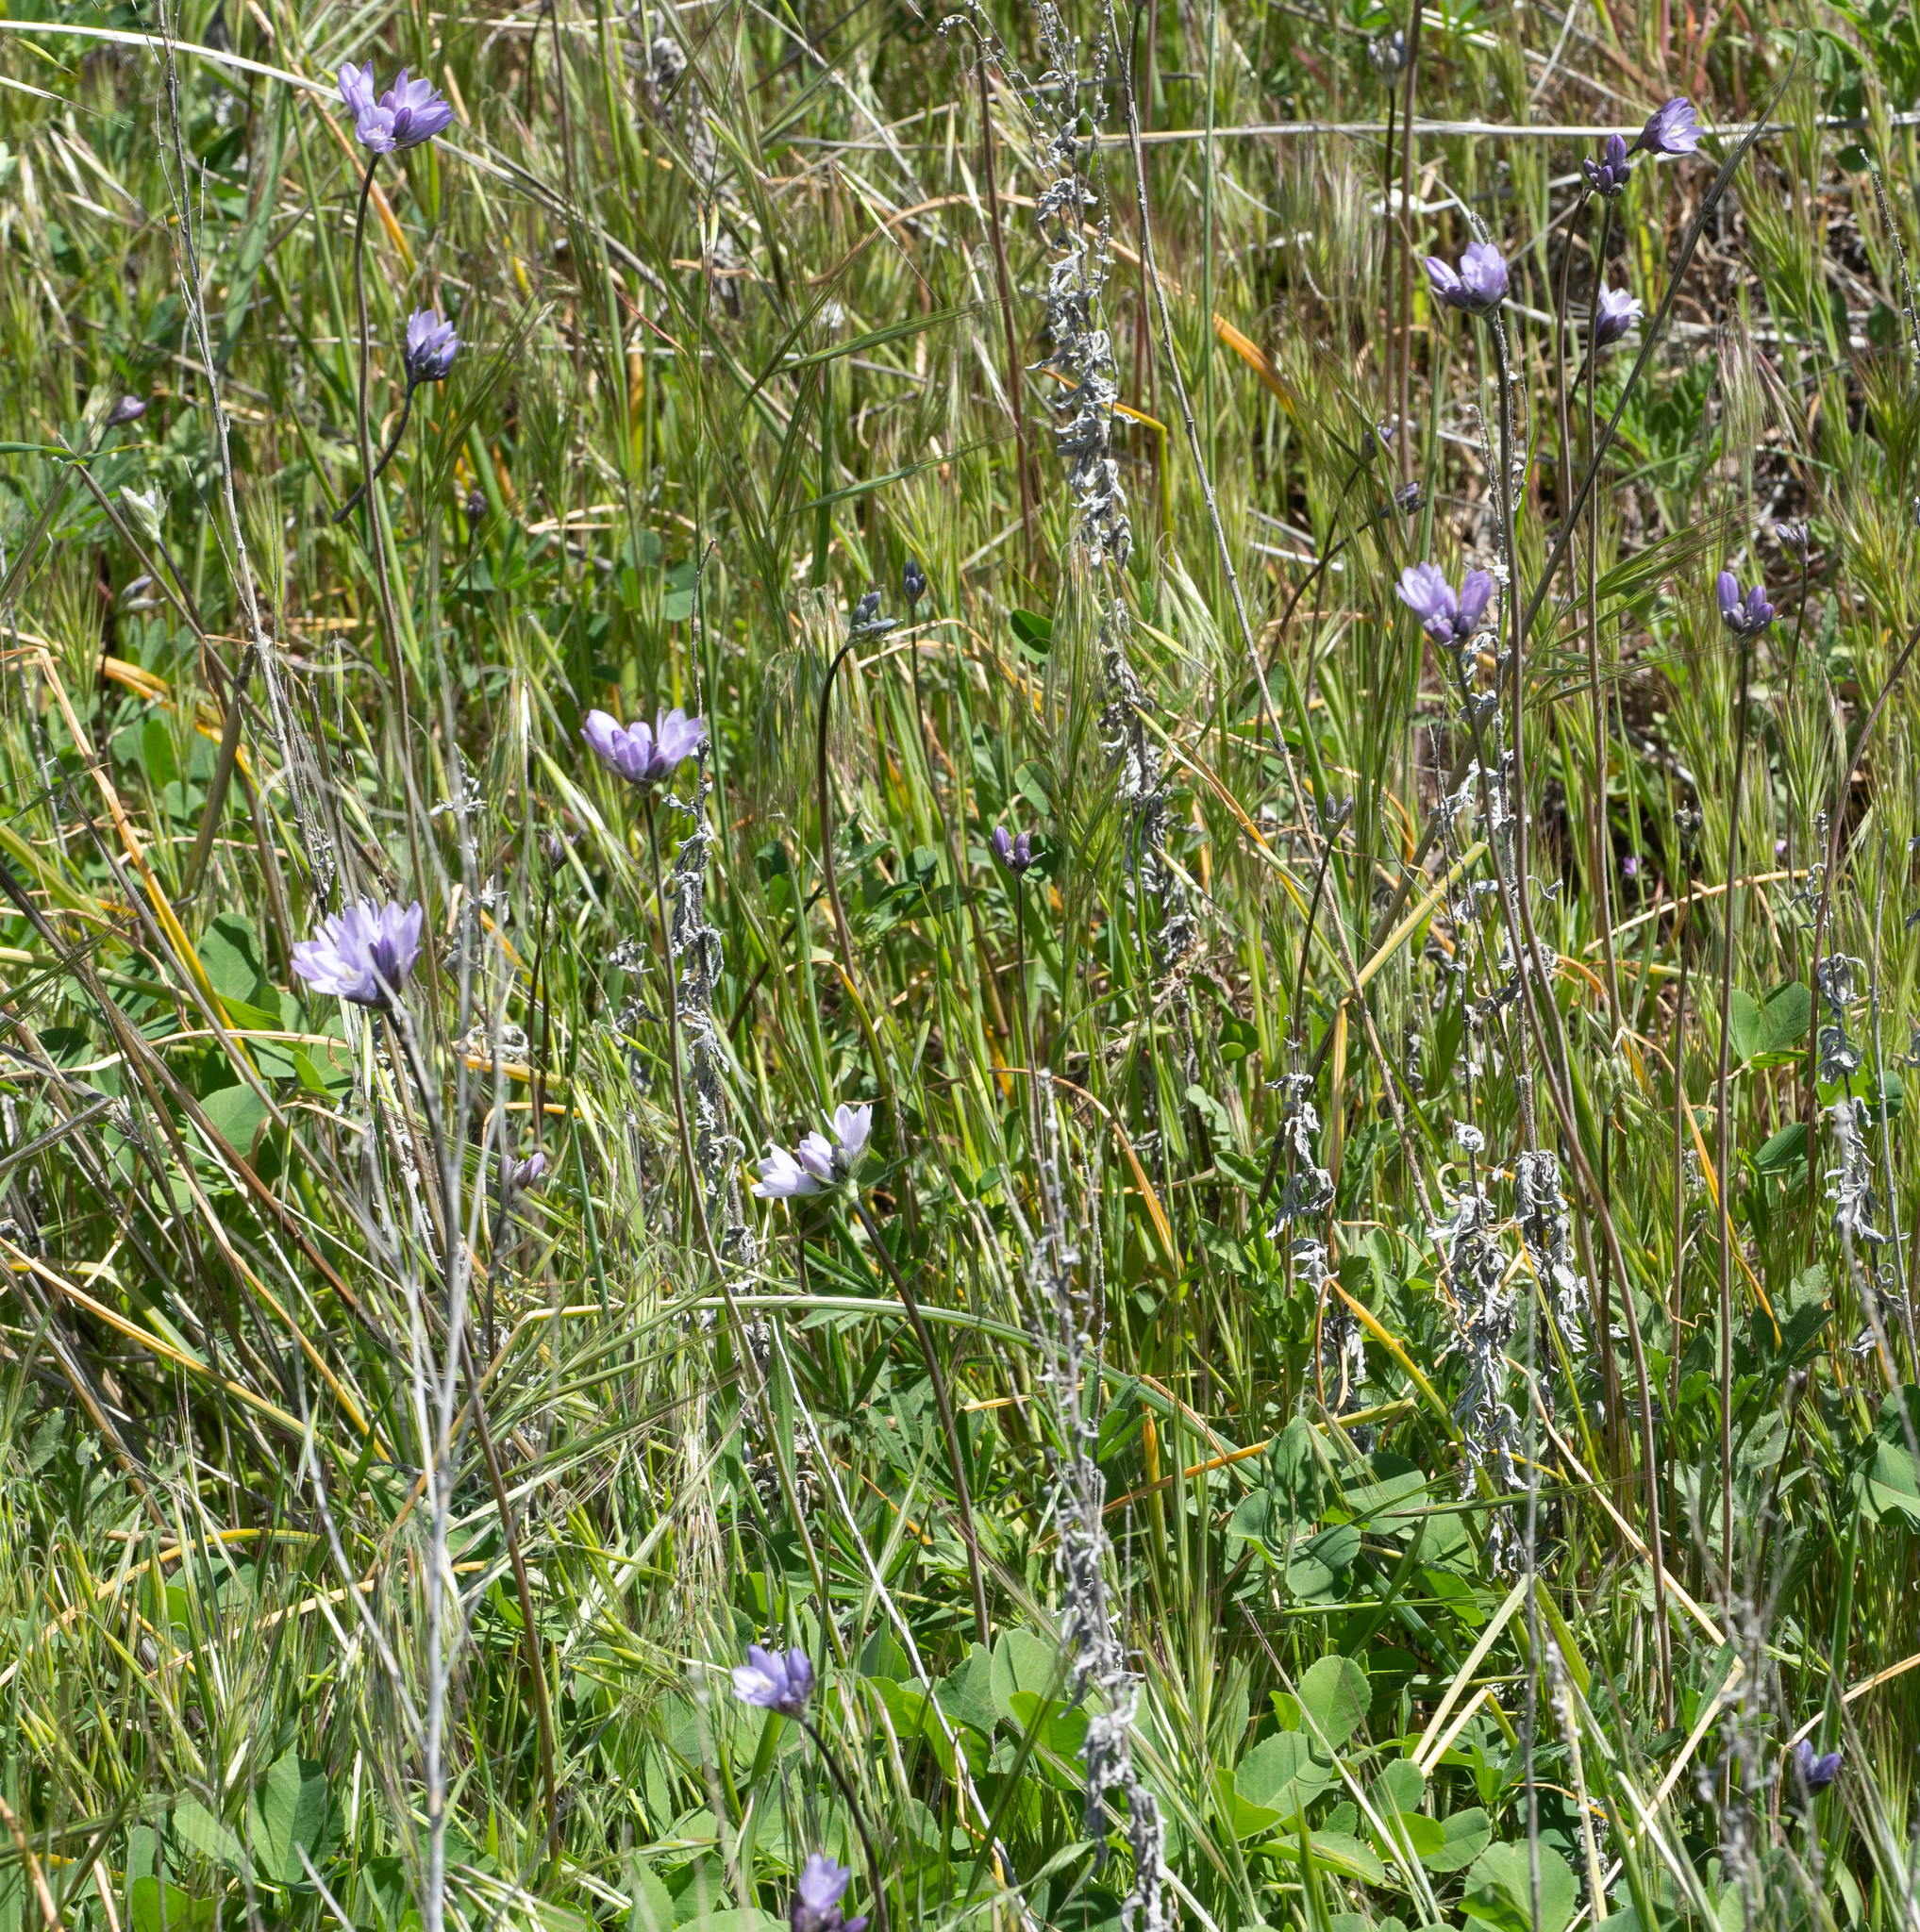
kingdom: Plantae
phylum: Tracheophyta
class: Liliopsida
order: Asparagales
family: Asparagaceae
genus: Dipterostemon
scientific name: Dipterostemon capitatus
